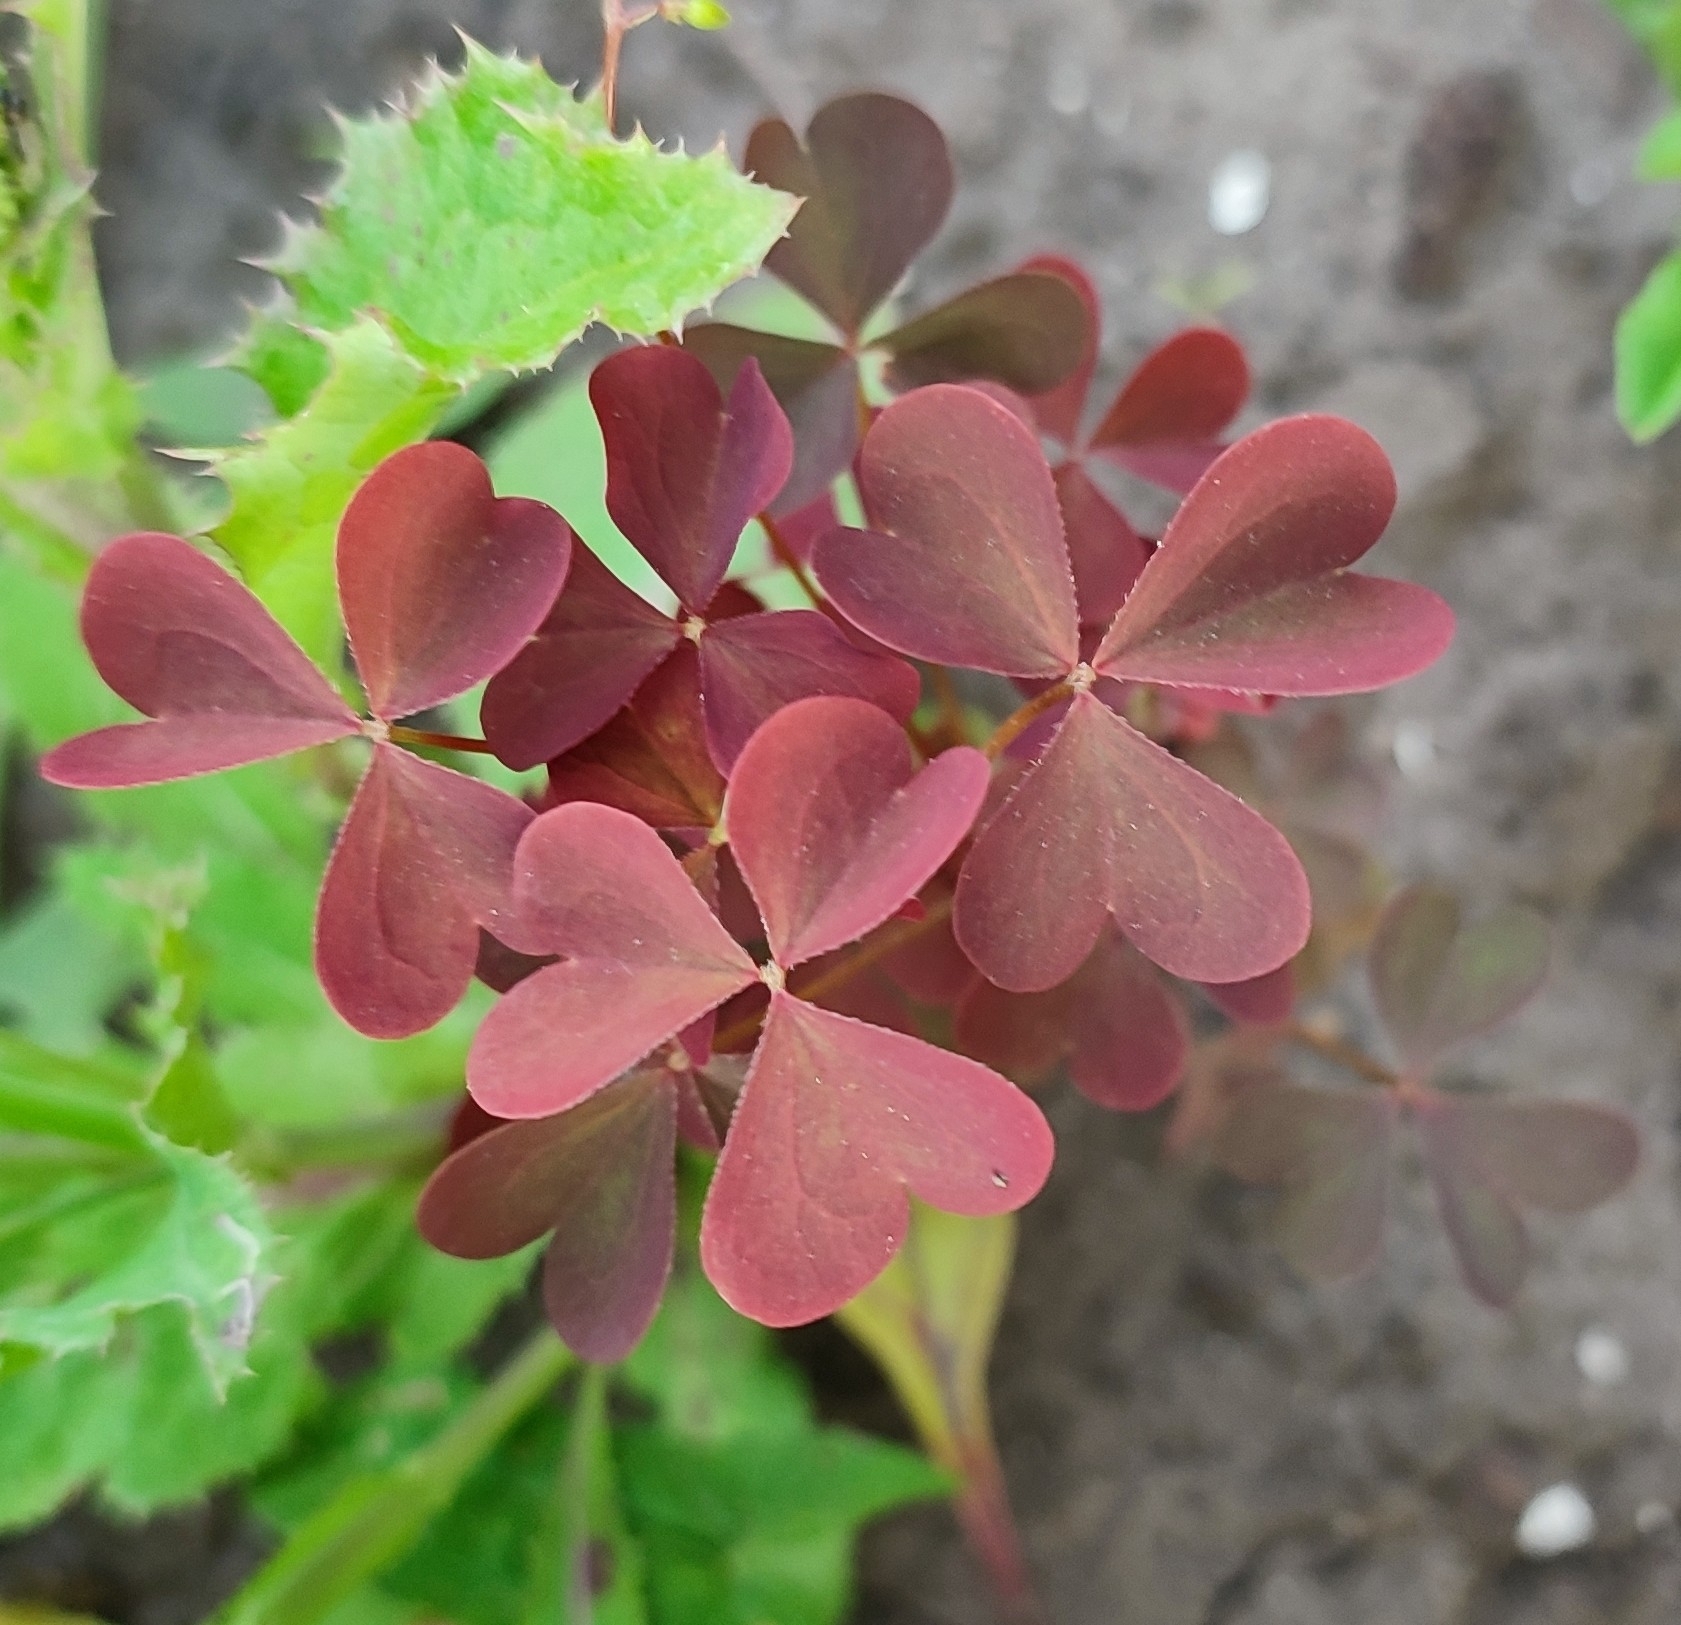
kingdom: Plantae
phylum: Tracheophyta
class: Magnoliopsida
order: Oxalidales
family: Oxalidaceae
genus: Oxalis
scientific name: Oxalis stricta
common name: Upright yellow-sorrel
